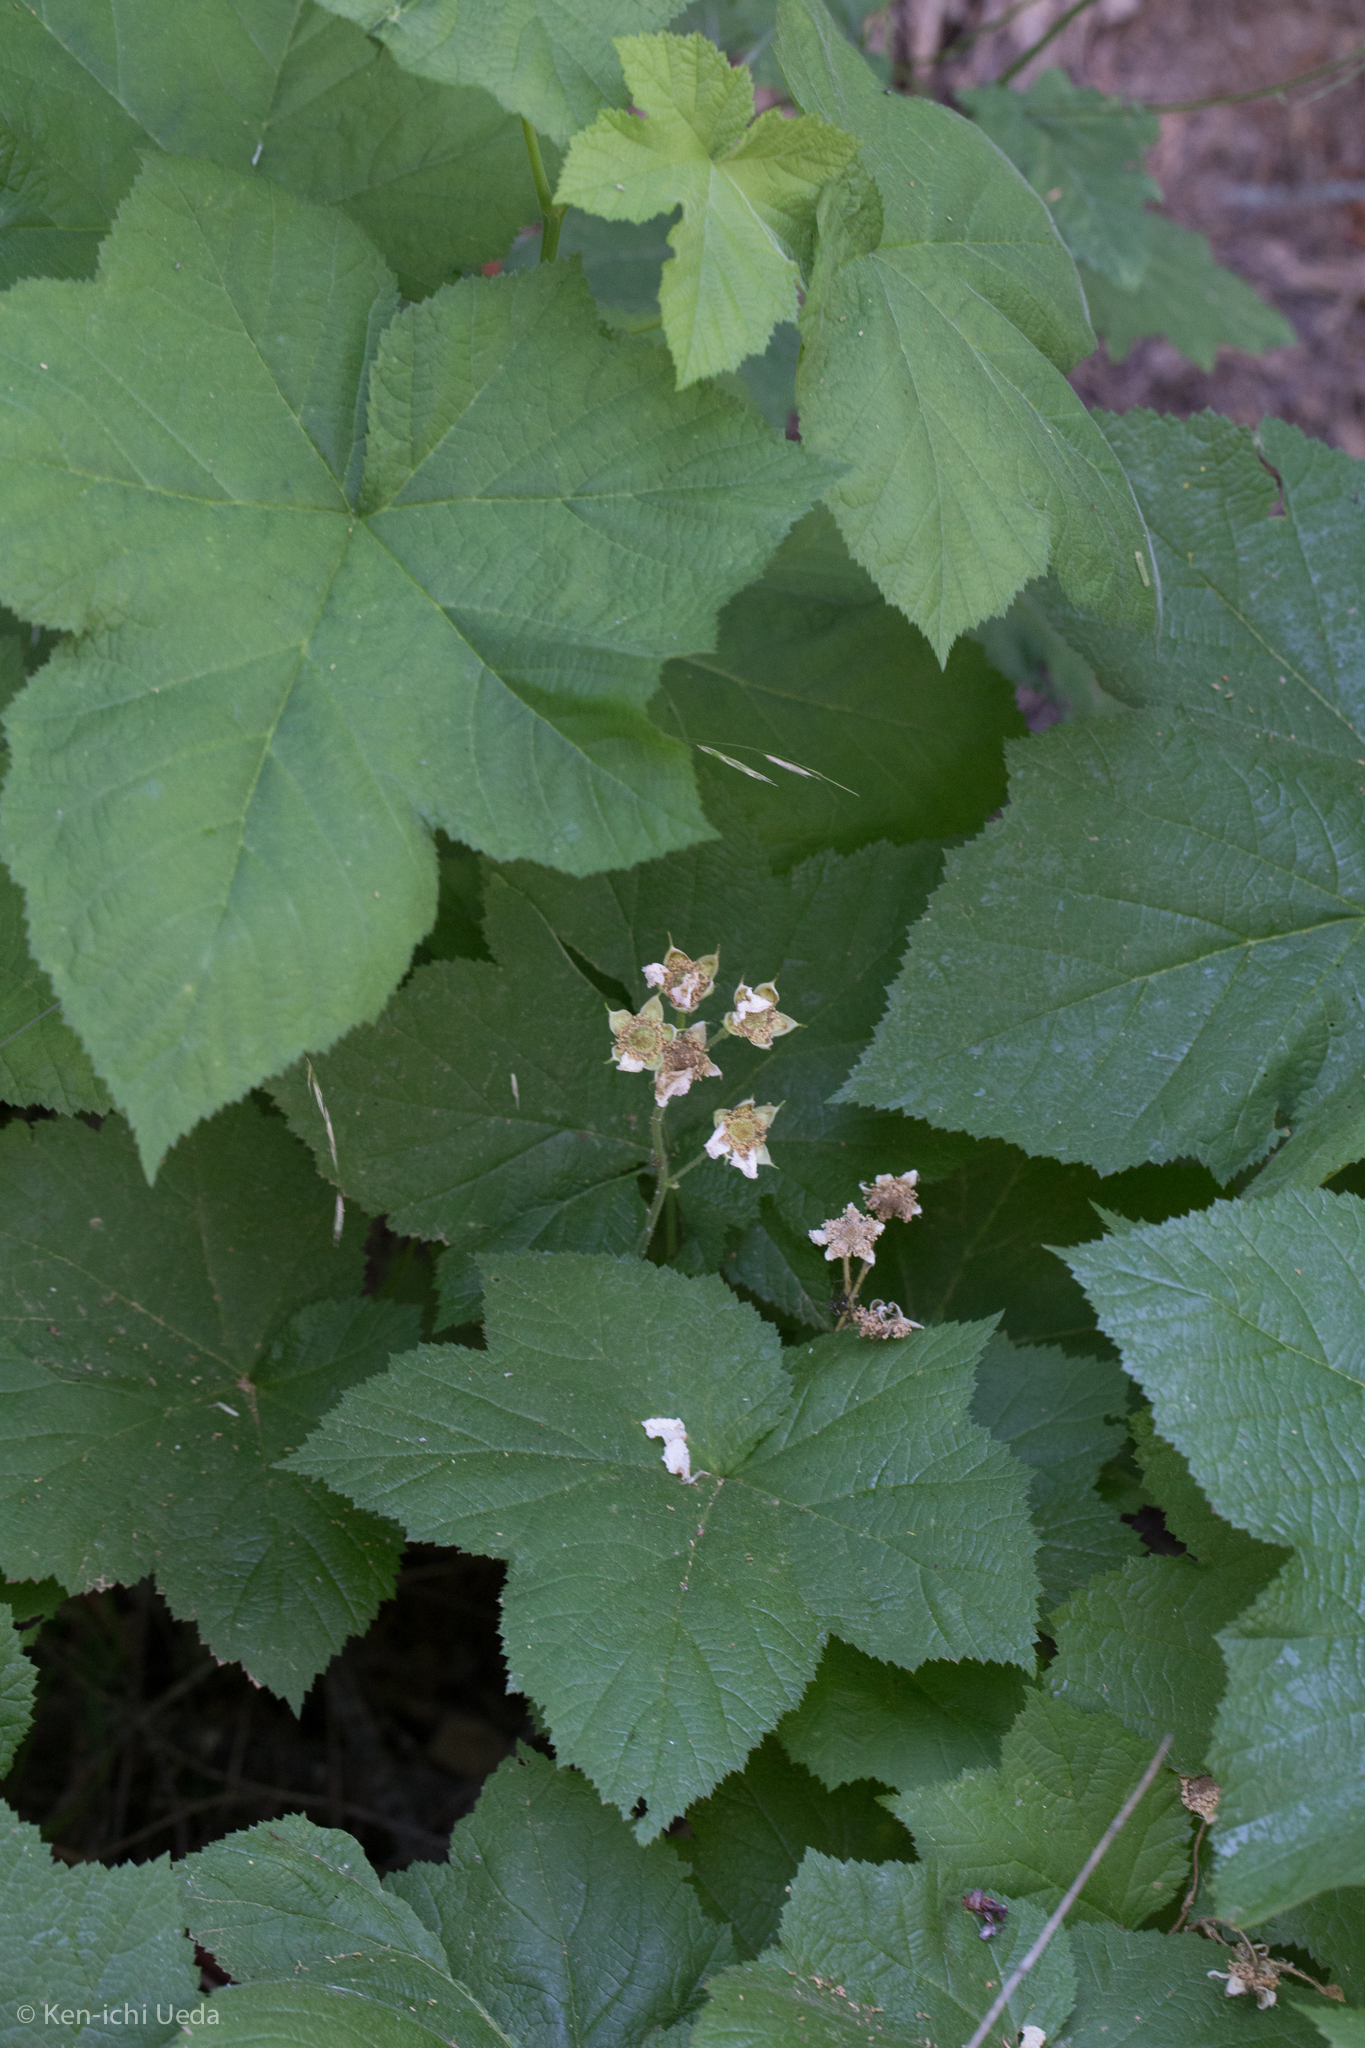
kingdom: Plantae
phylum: Tracheophyta
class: Magnoliopsida
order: Rosales
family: Rosaceae
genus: Rubus
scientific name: Rubus parviflorus
